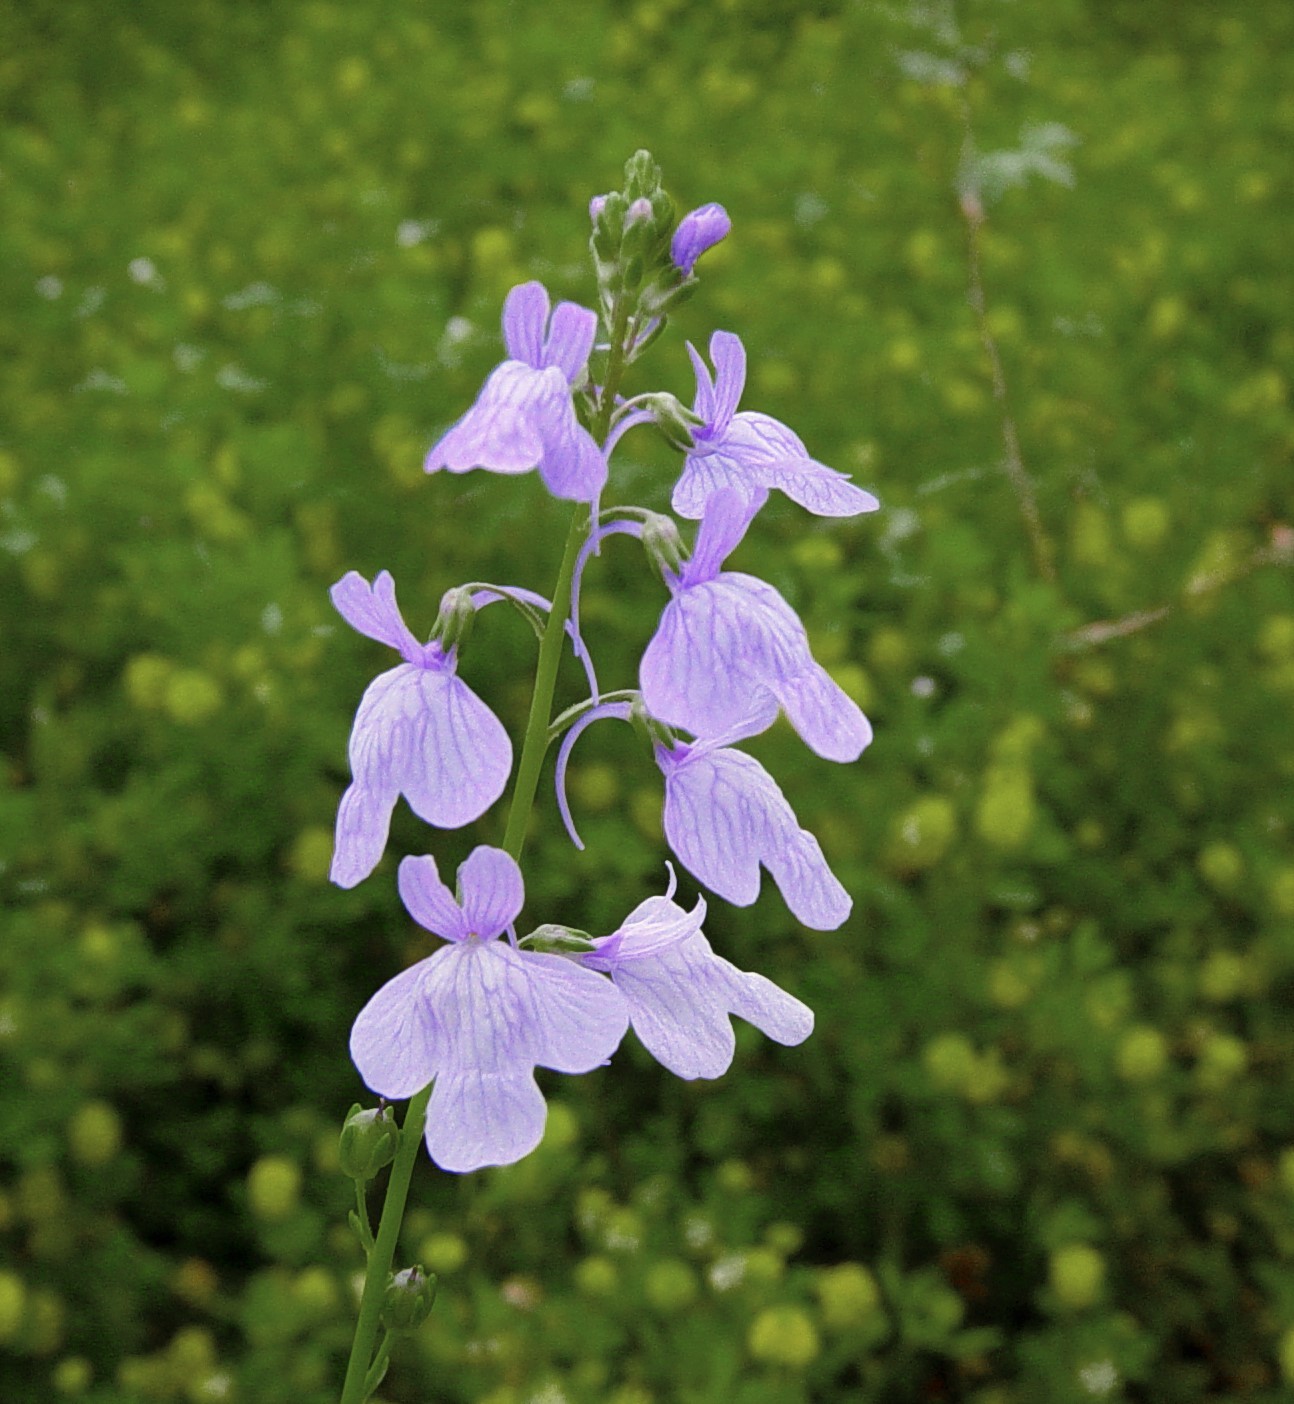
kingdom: Plantae
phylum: Tracheophyta
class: Magnoliopsida
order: Lamiales
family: Plantaginaceae
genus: Nuttallanthus
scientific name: Nuttallanthus canadensis
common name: Blue toadflax
